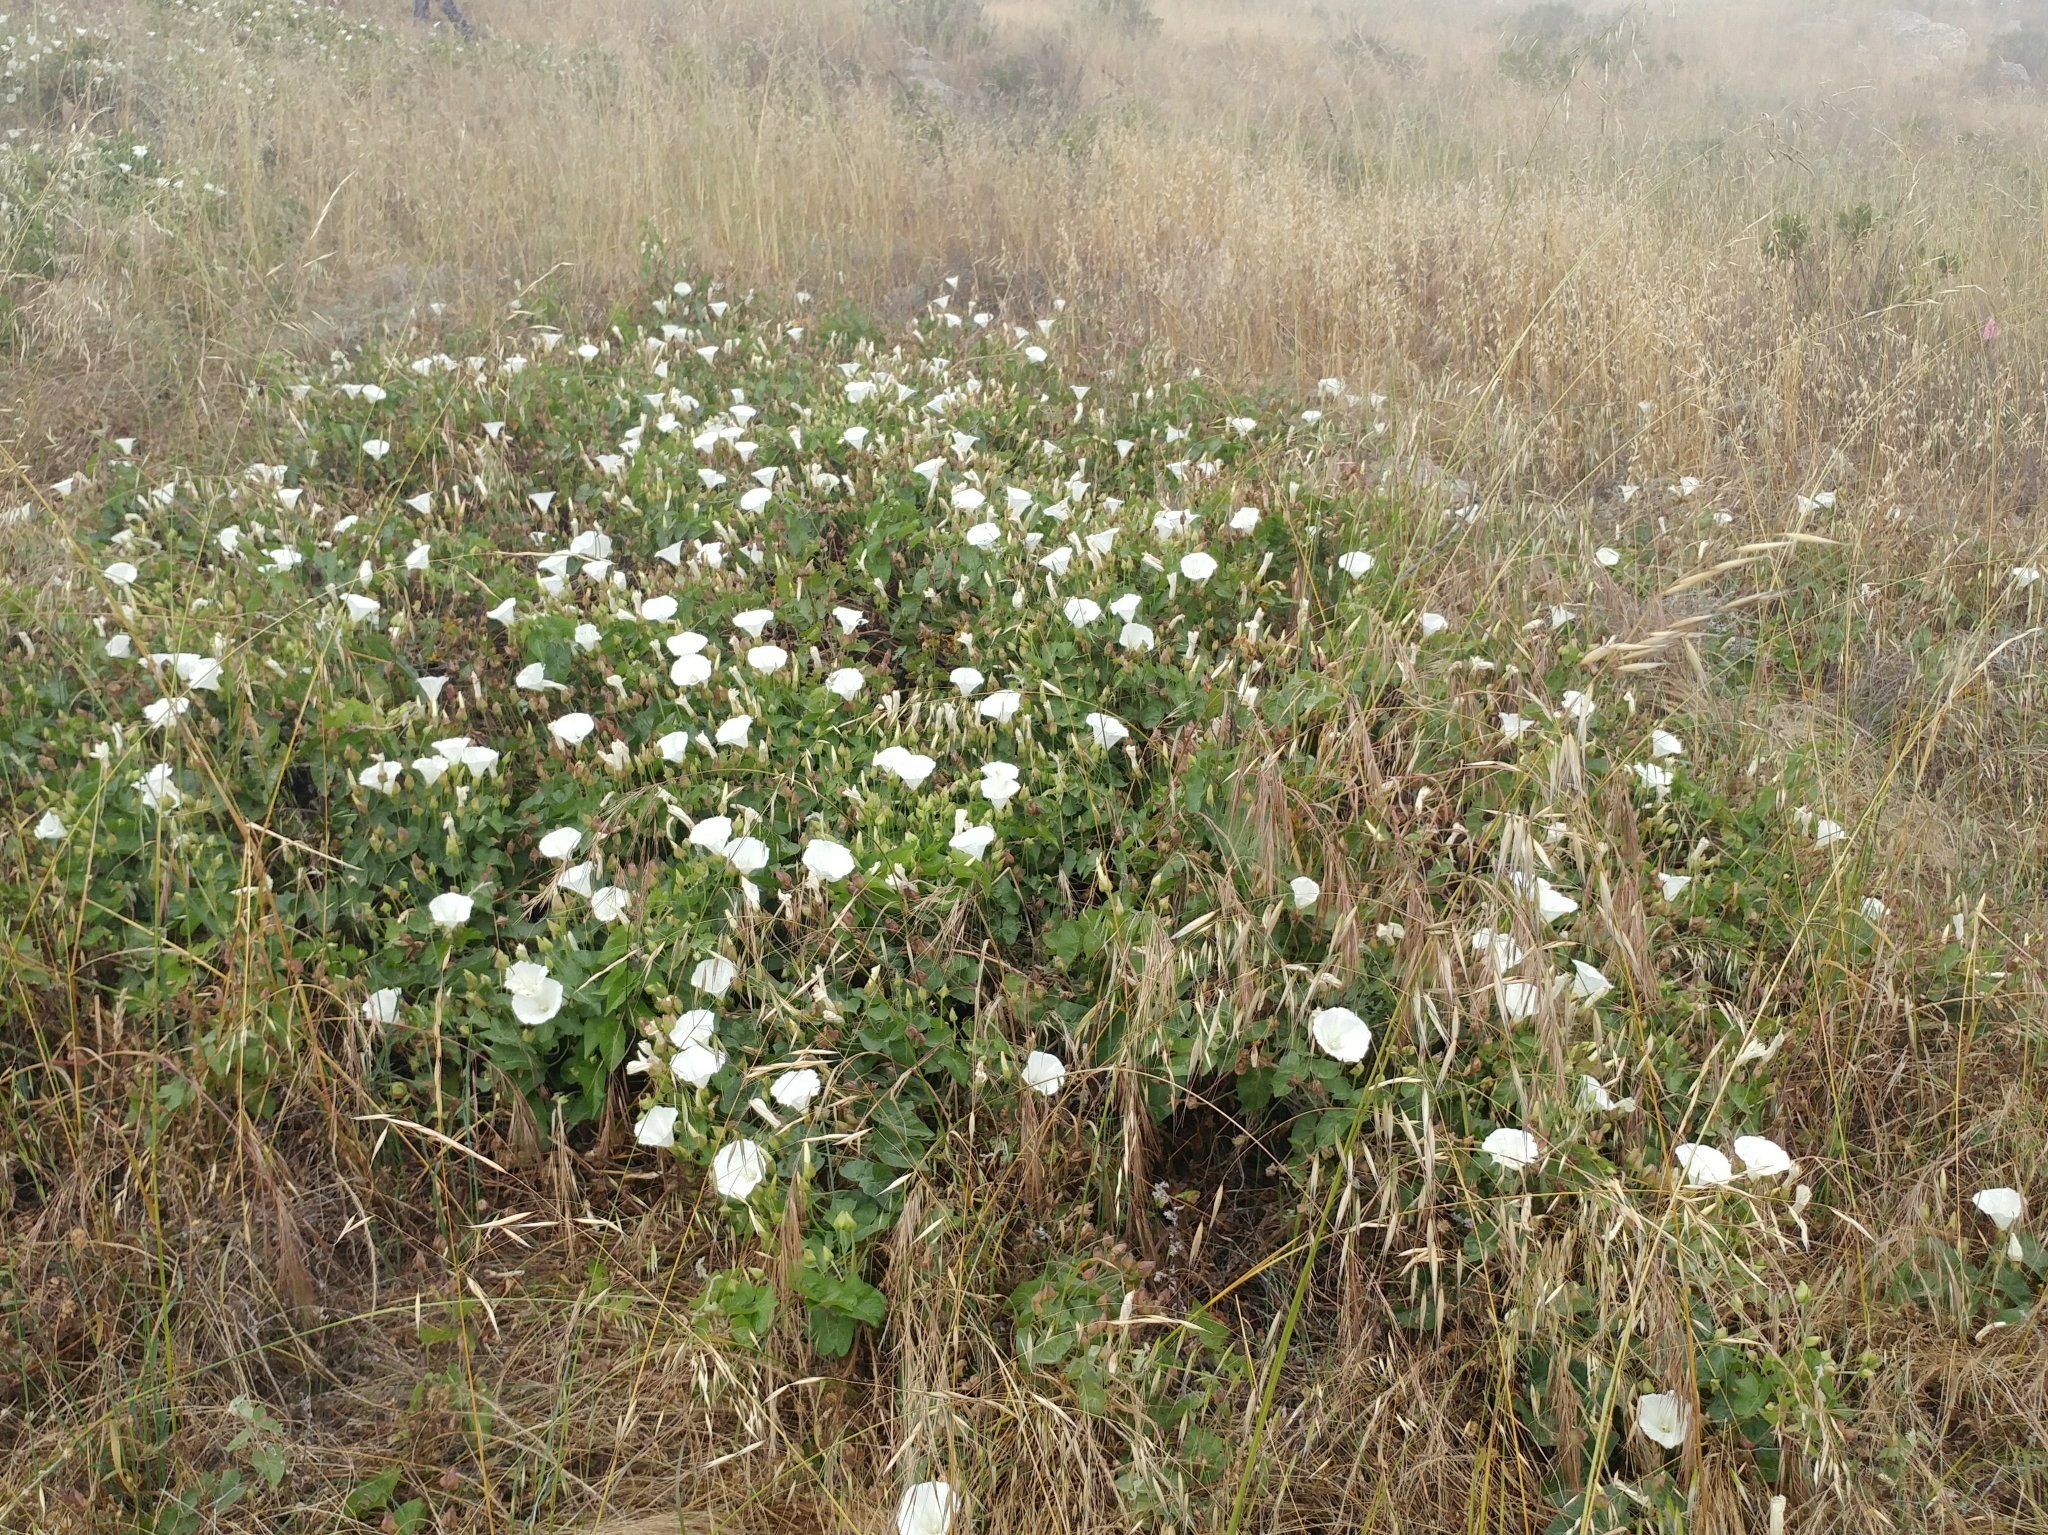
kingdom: Plantae
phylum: Tracheophyta
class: Magnoliopsida
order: Solanales
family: Convolvulaceae
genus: Calystegia
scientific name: Calystegia macrostegia
